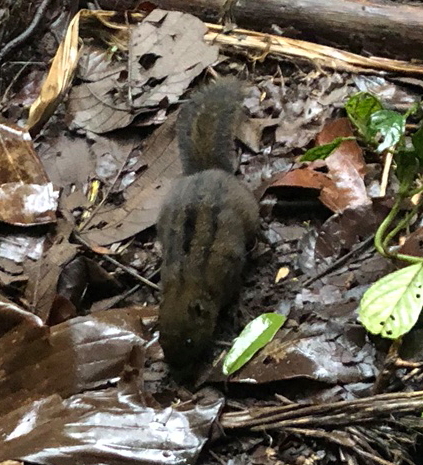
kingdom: Animalia
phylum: Chordata
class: Mammalia
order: Rodentia
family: Sciuridae
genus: Lariscus
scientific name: Lariscus insignis
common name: Three-striped ground squirrel
